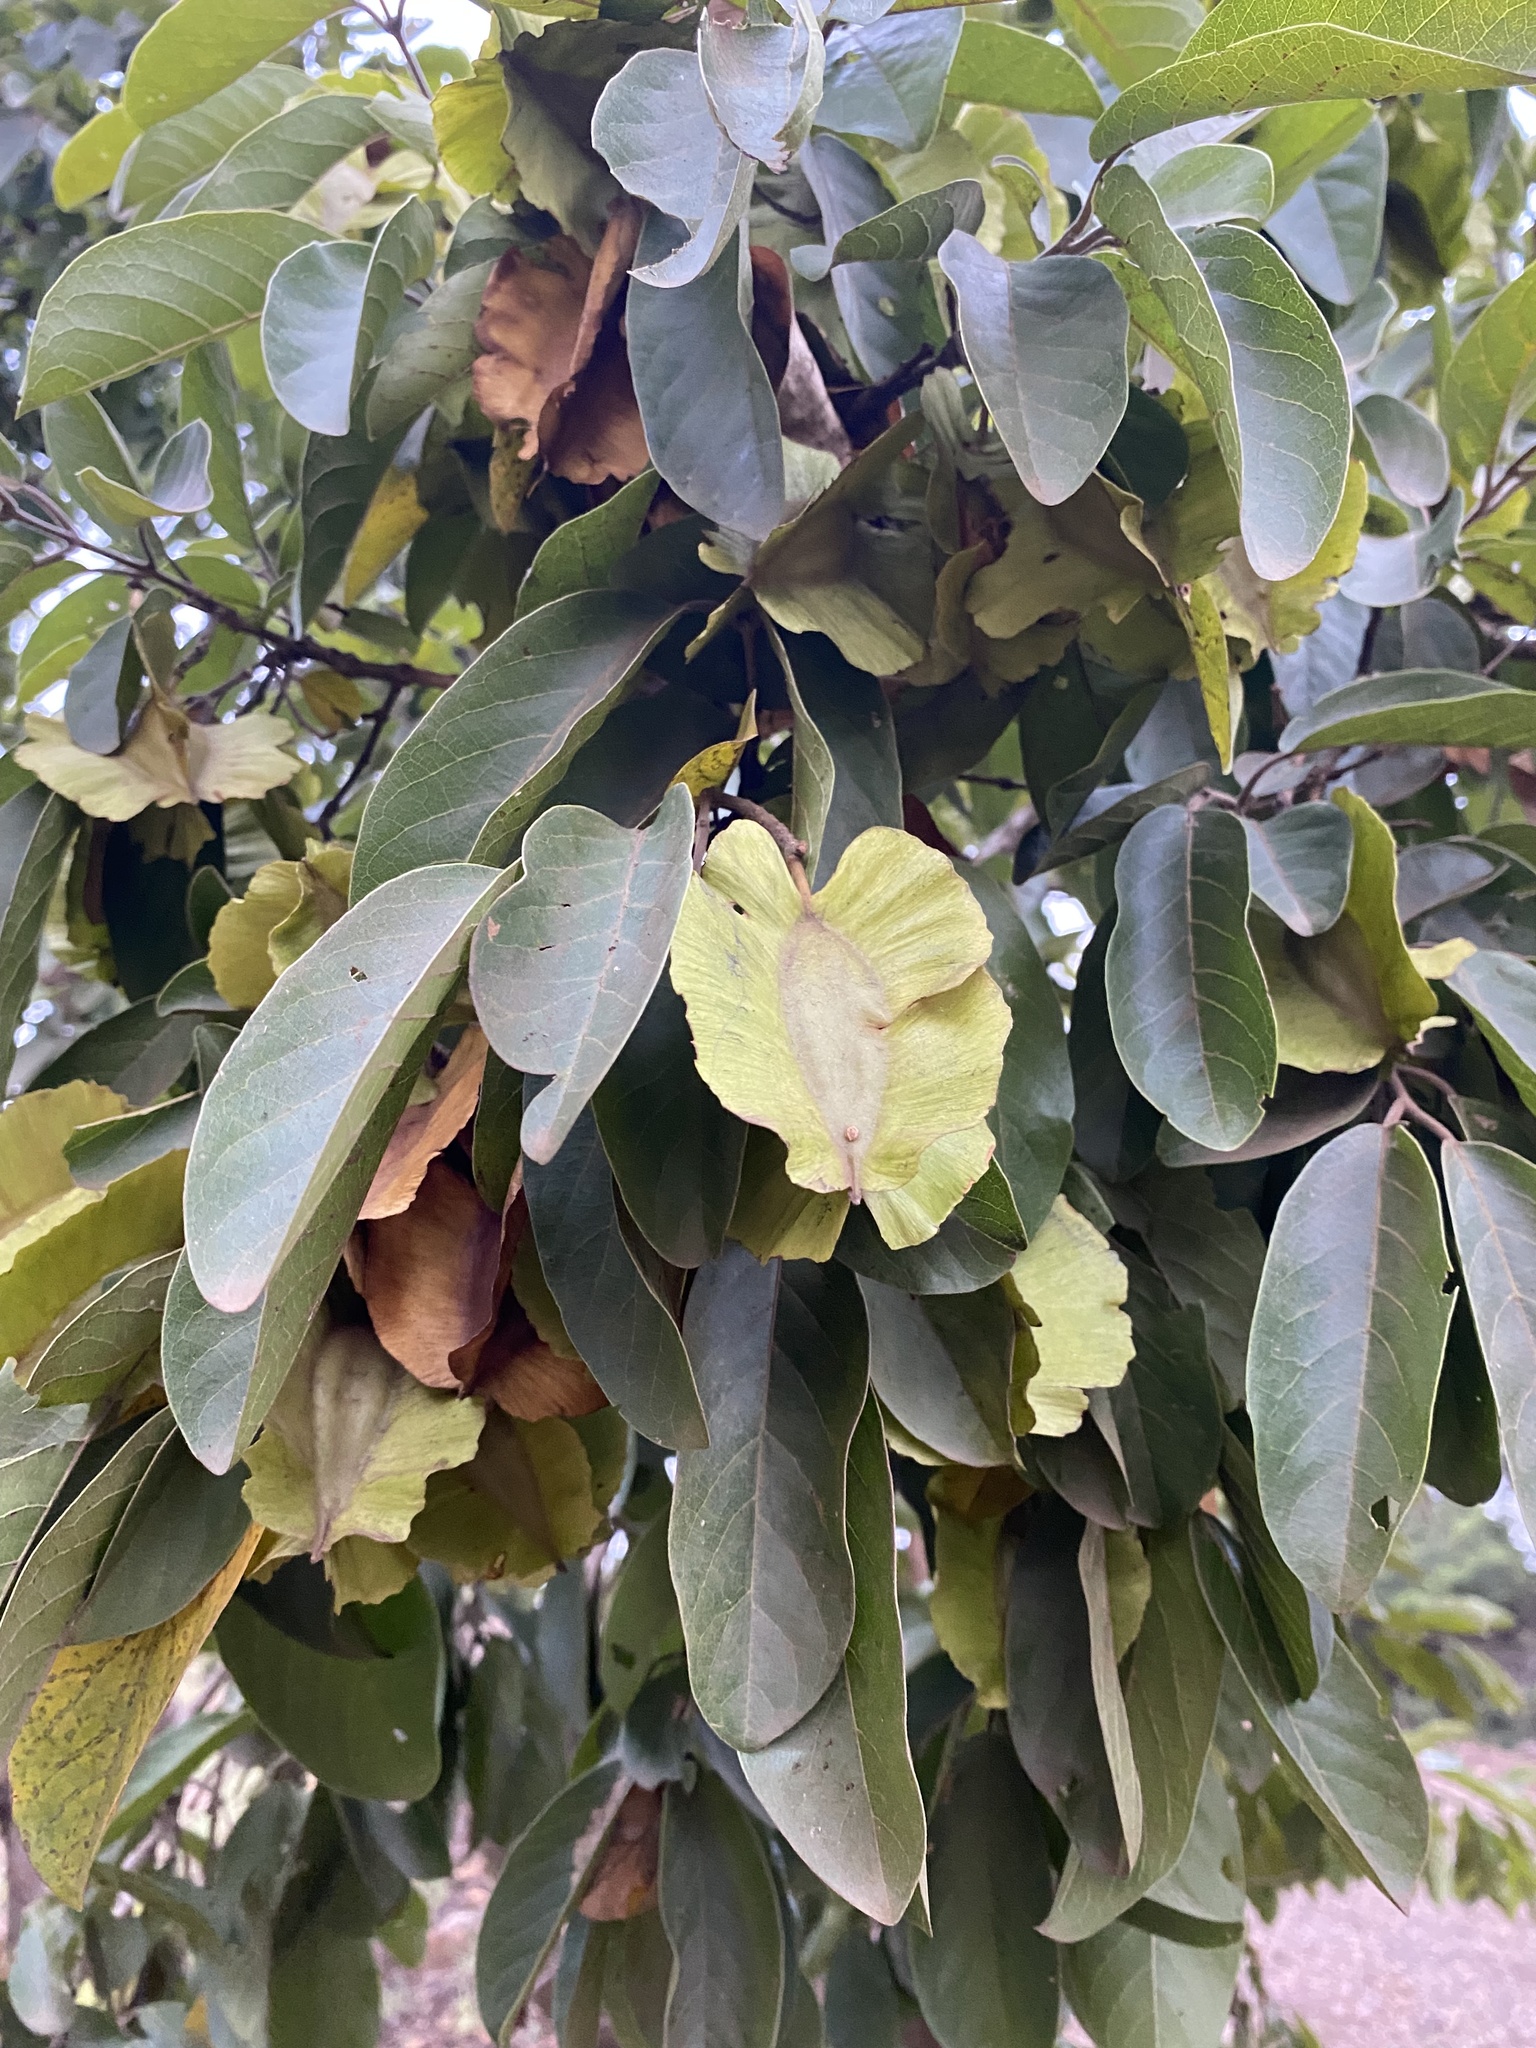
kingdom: Plantae
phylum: Tracheophyta
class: Magnoliopsida
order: Myrtales
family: Combretaceae
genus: Combretum
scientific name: Combretum zeyheri
